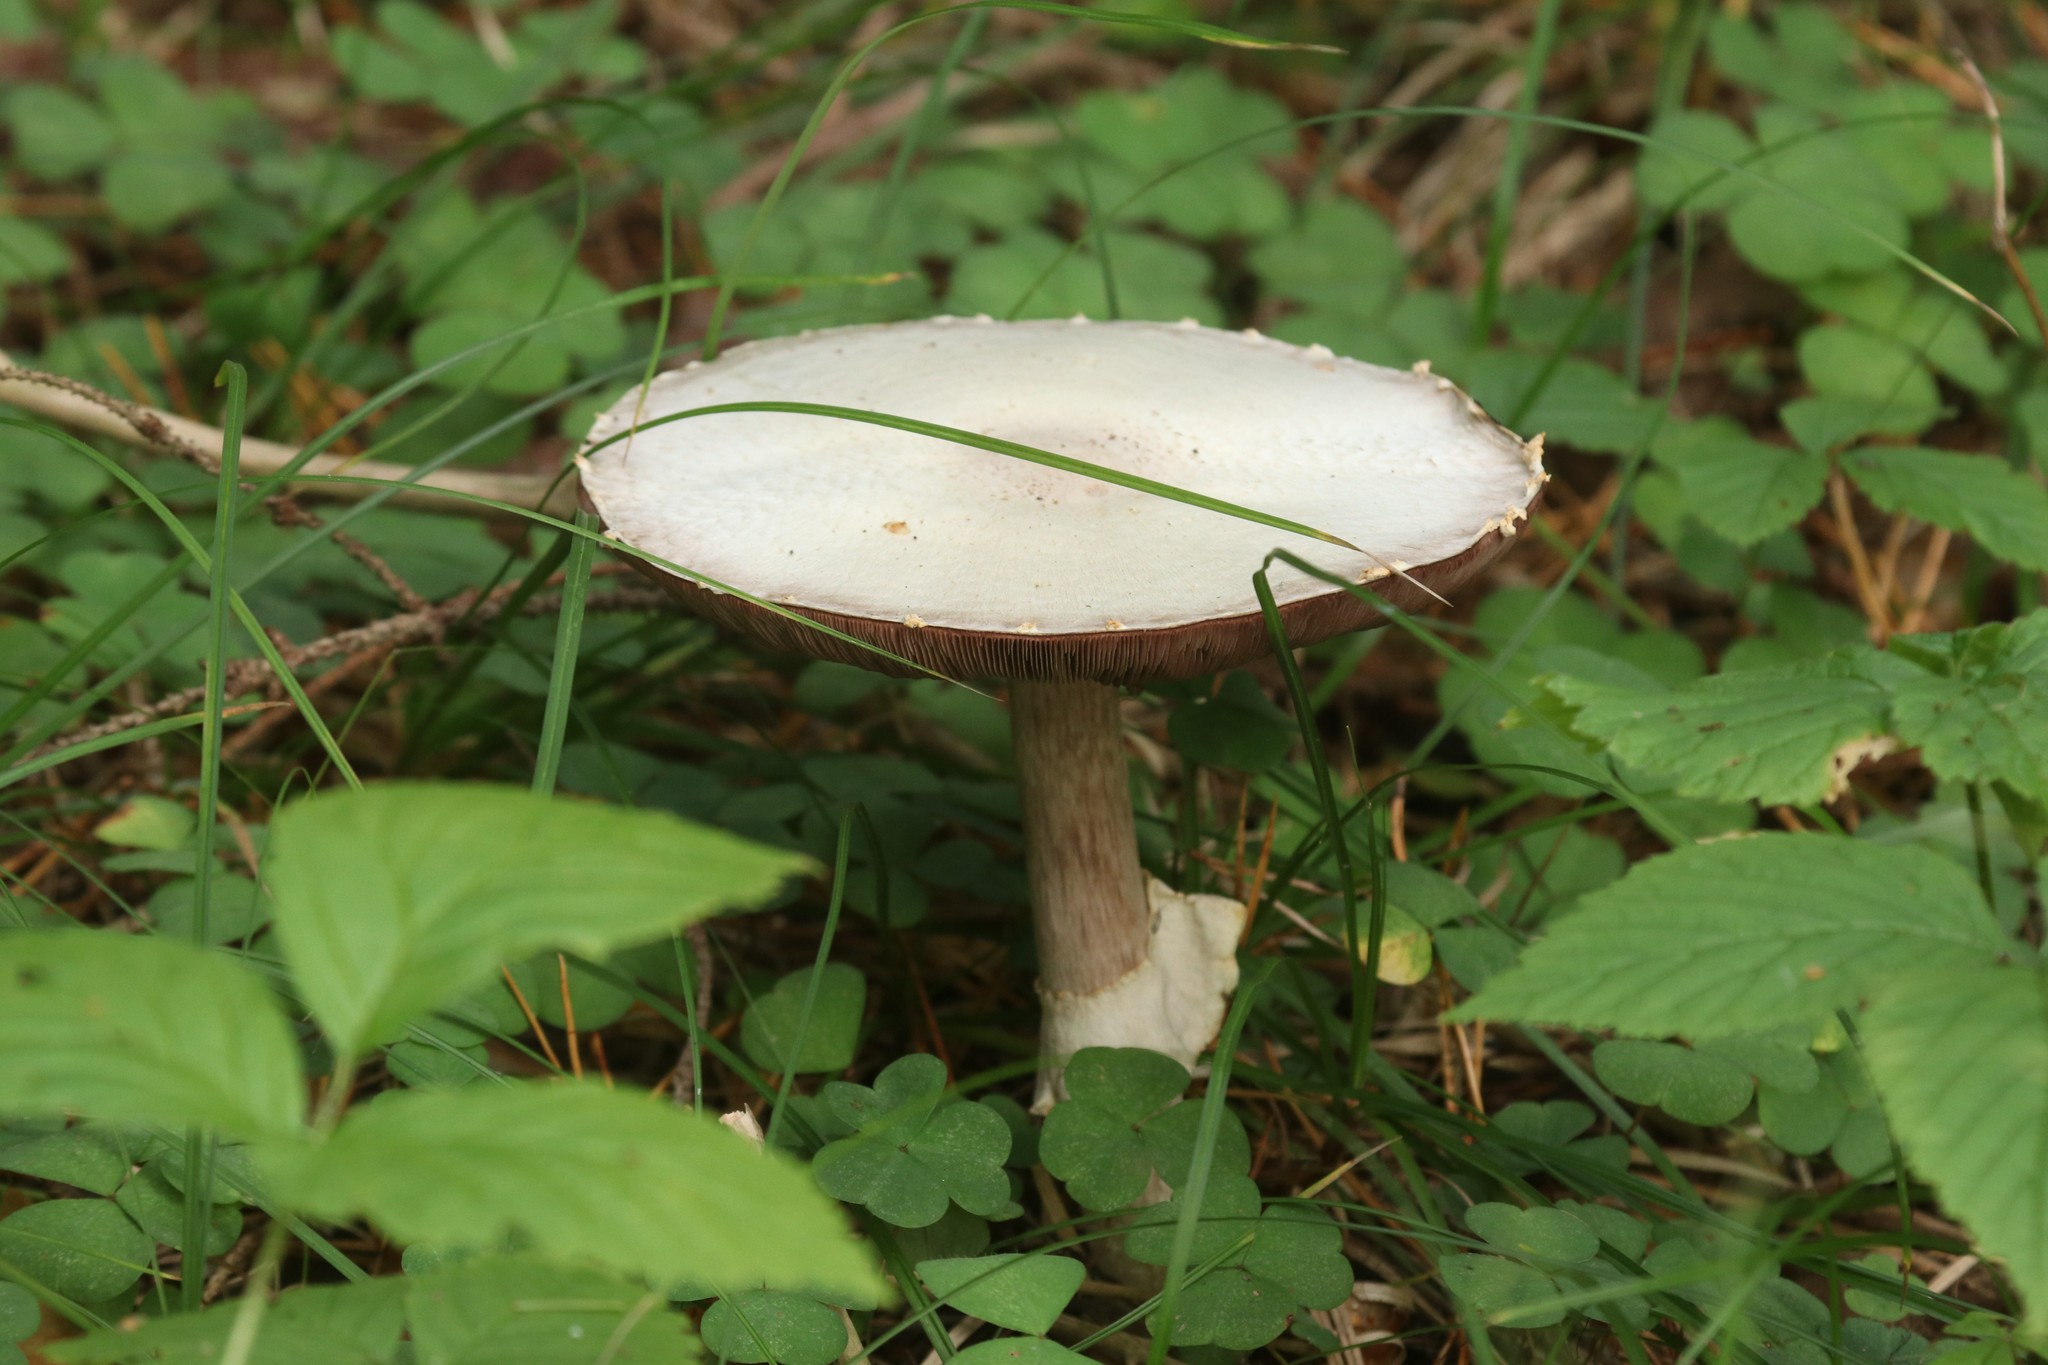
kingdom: Fungi
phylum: Basidiomycota
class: Agaricomycetes
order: Agaricales
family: Agaricaceae
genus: Agaricus
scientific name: Agaricus campestris
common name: Field mushroom
